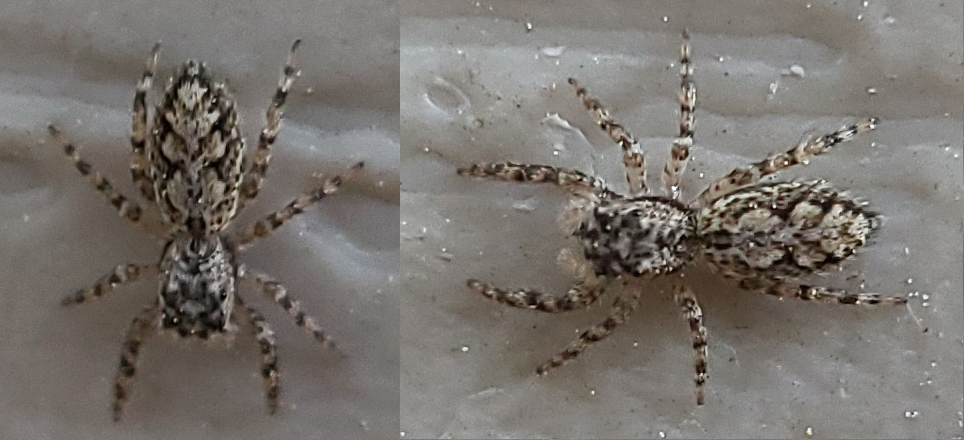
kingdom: Animalia
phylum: Arthropoda
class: Arachnida
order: Araneae
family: Salticidae
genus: Platycryptus
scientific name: Platycryptus undatus
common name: Tan jumping spider
